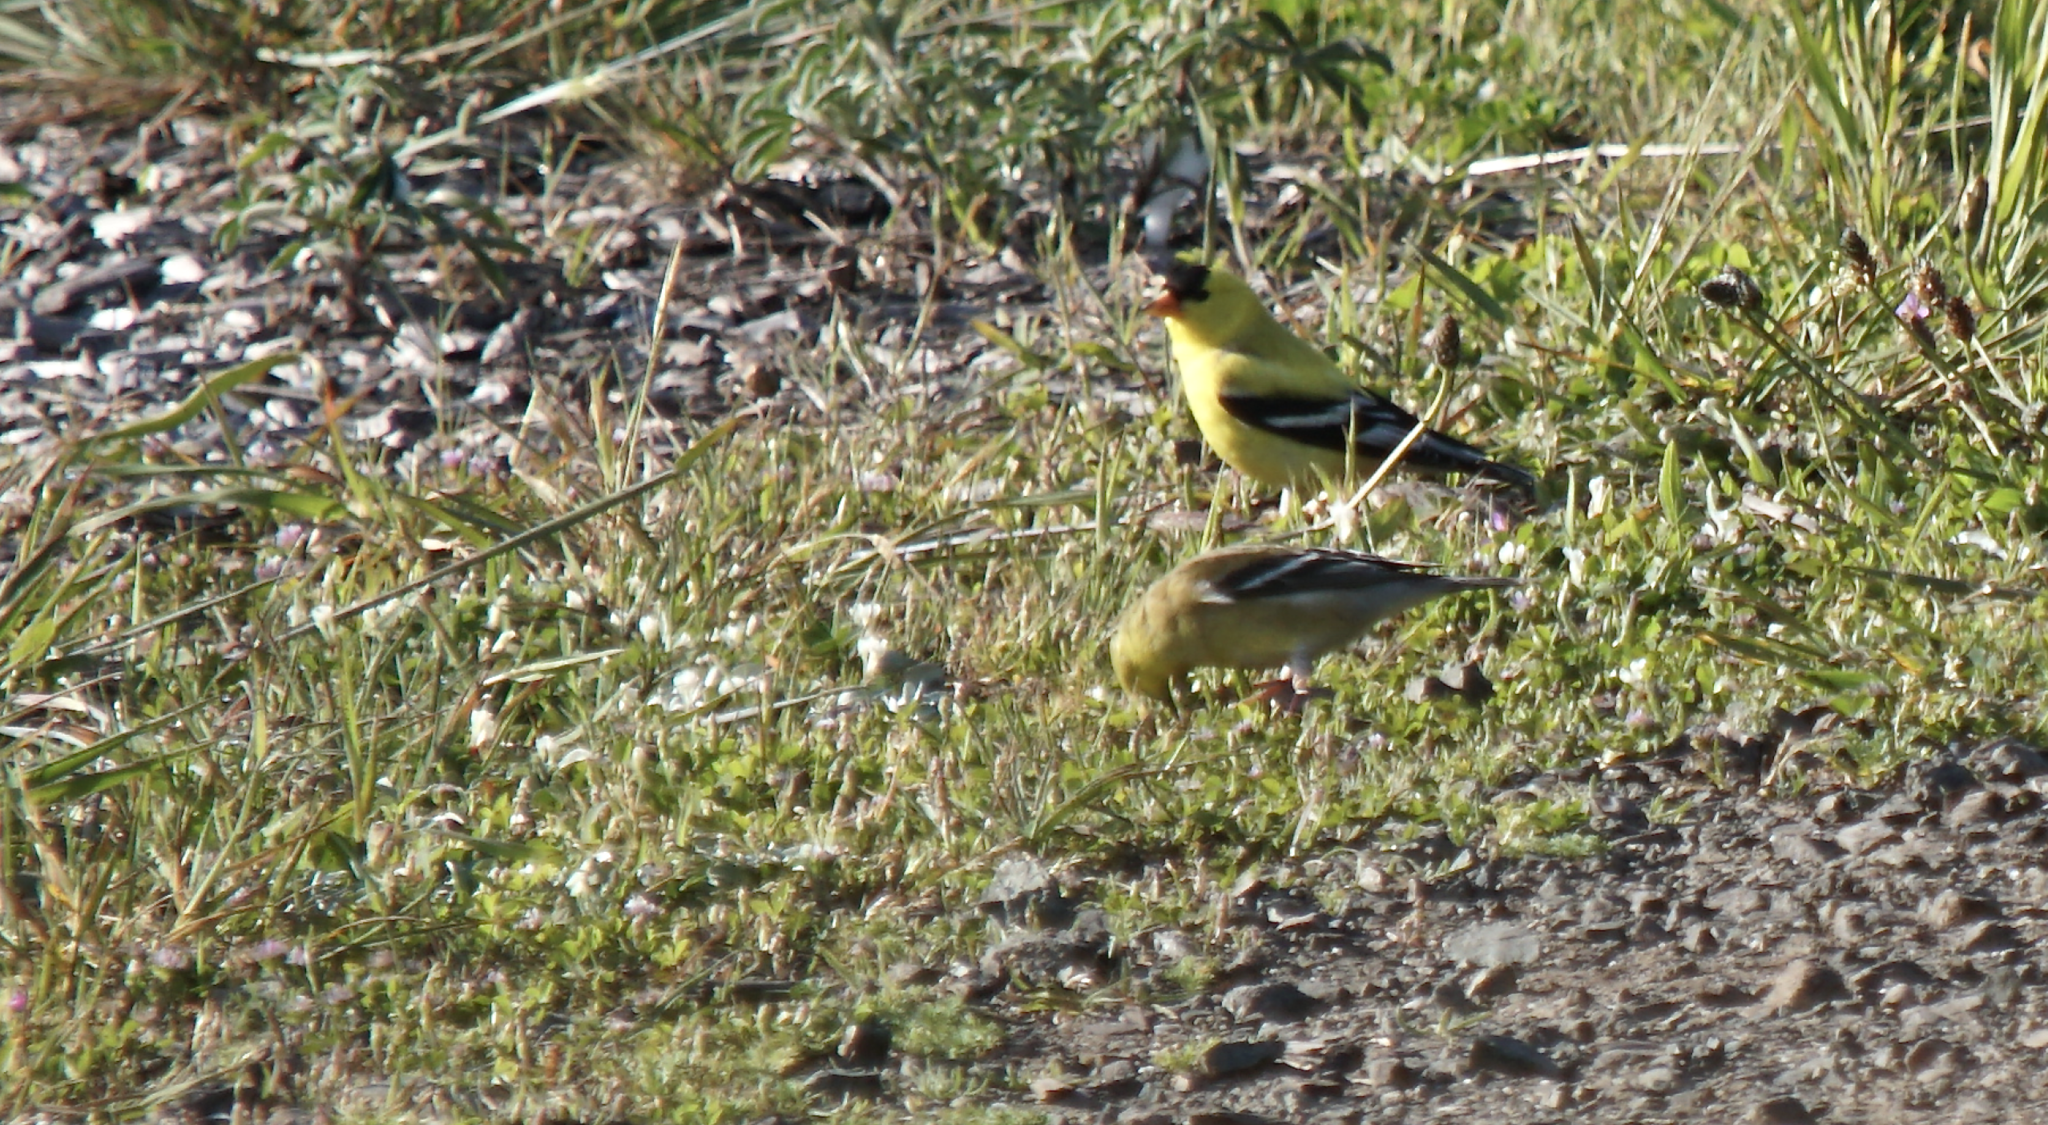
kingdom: Animalia
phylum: Chordata
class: Aves
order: Passeriformes
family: Fringillidae
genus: Spinus
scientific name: Spinus tristis
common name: American goldfinch
